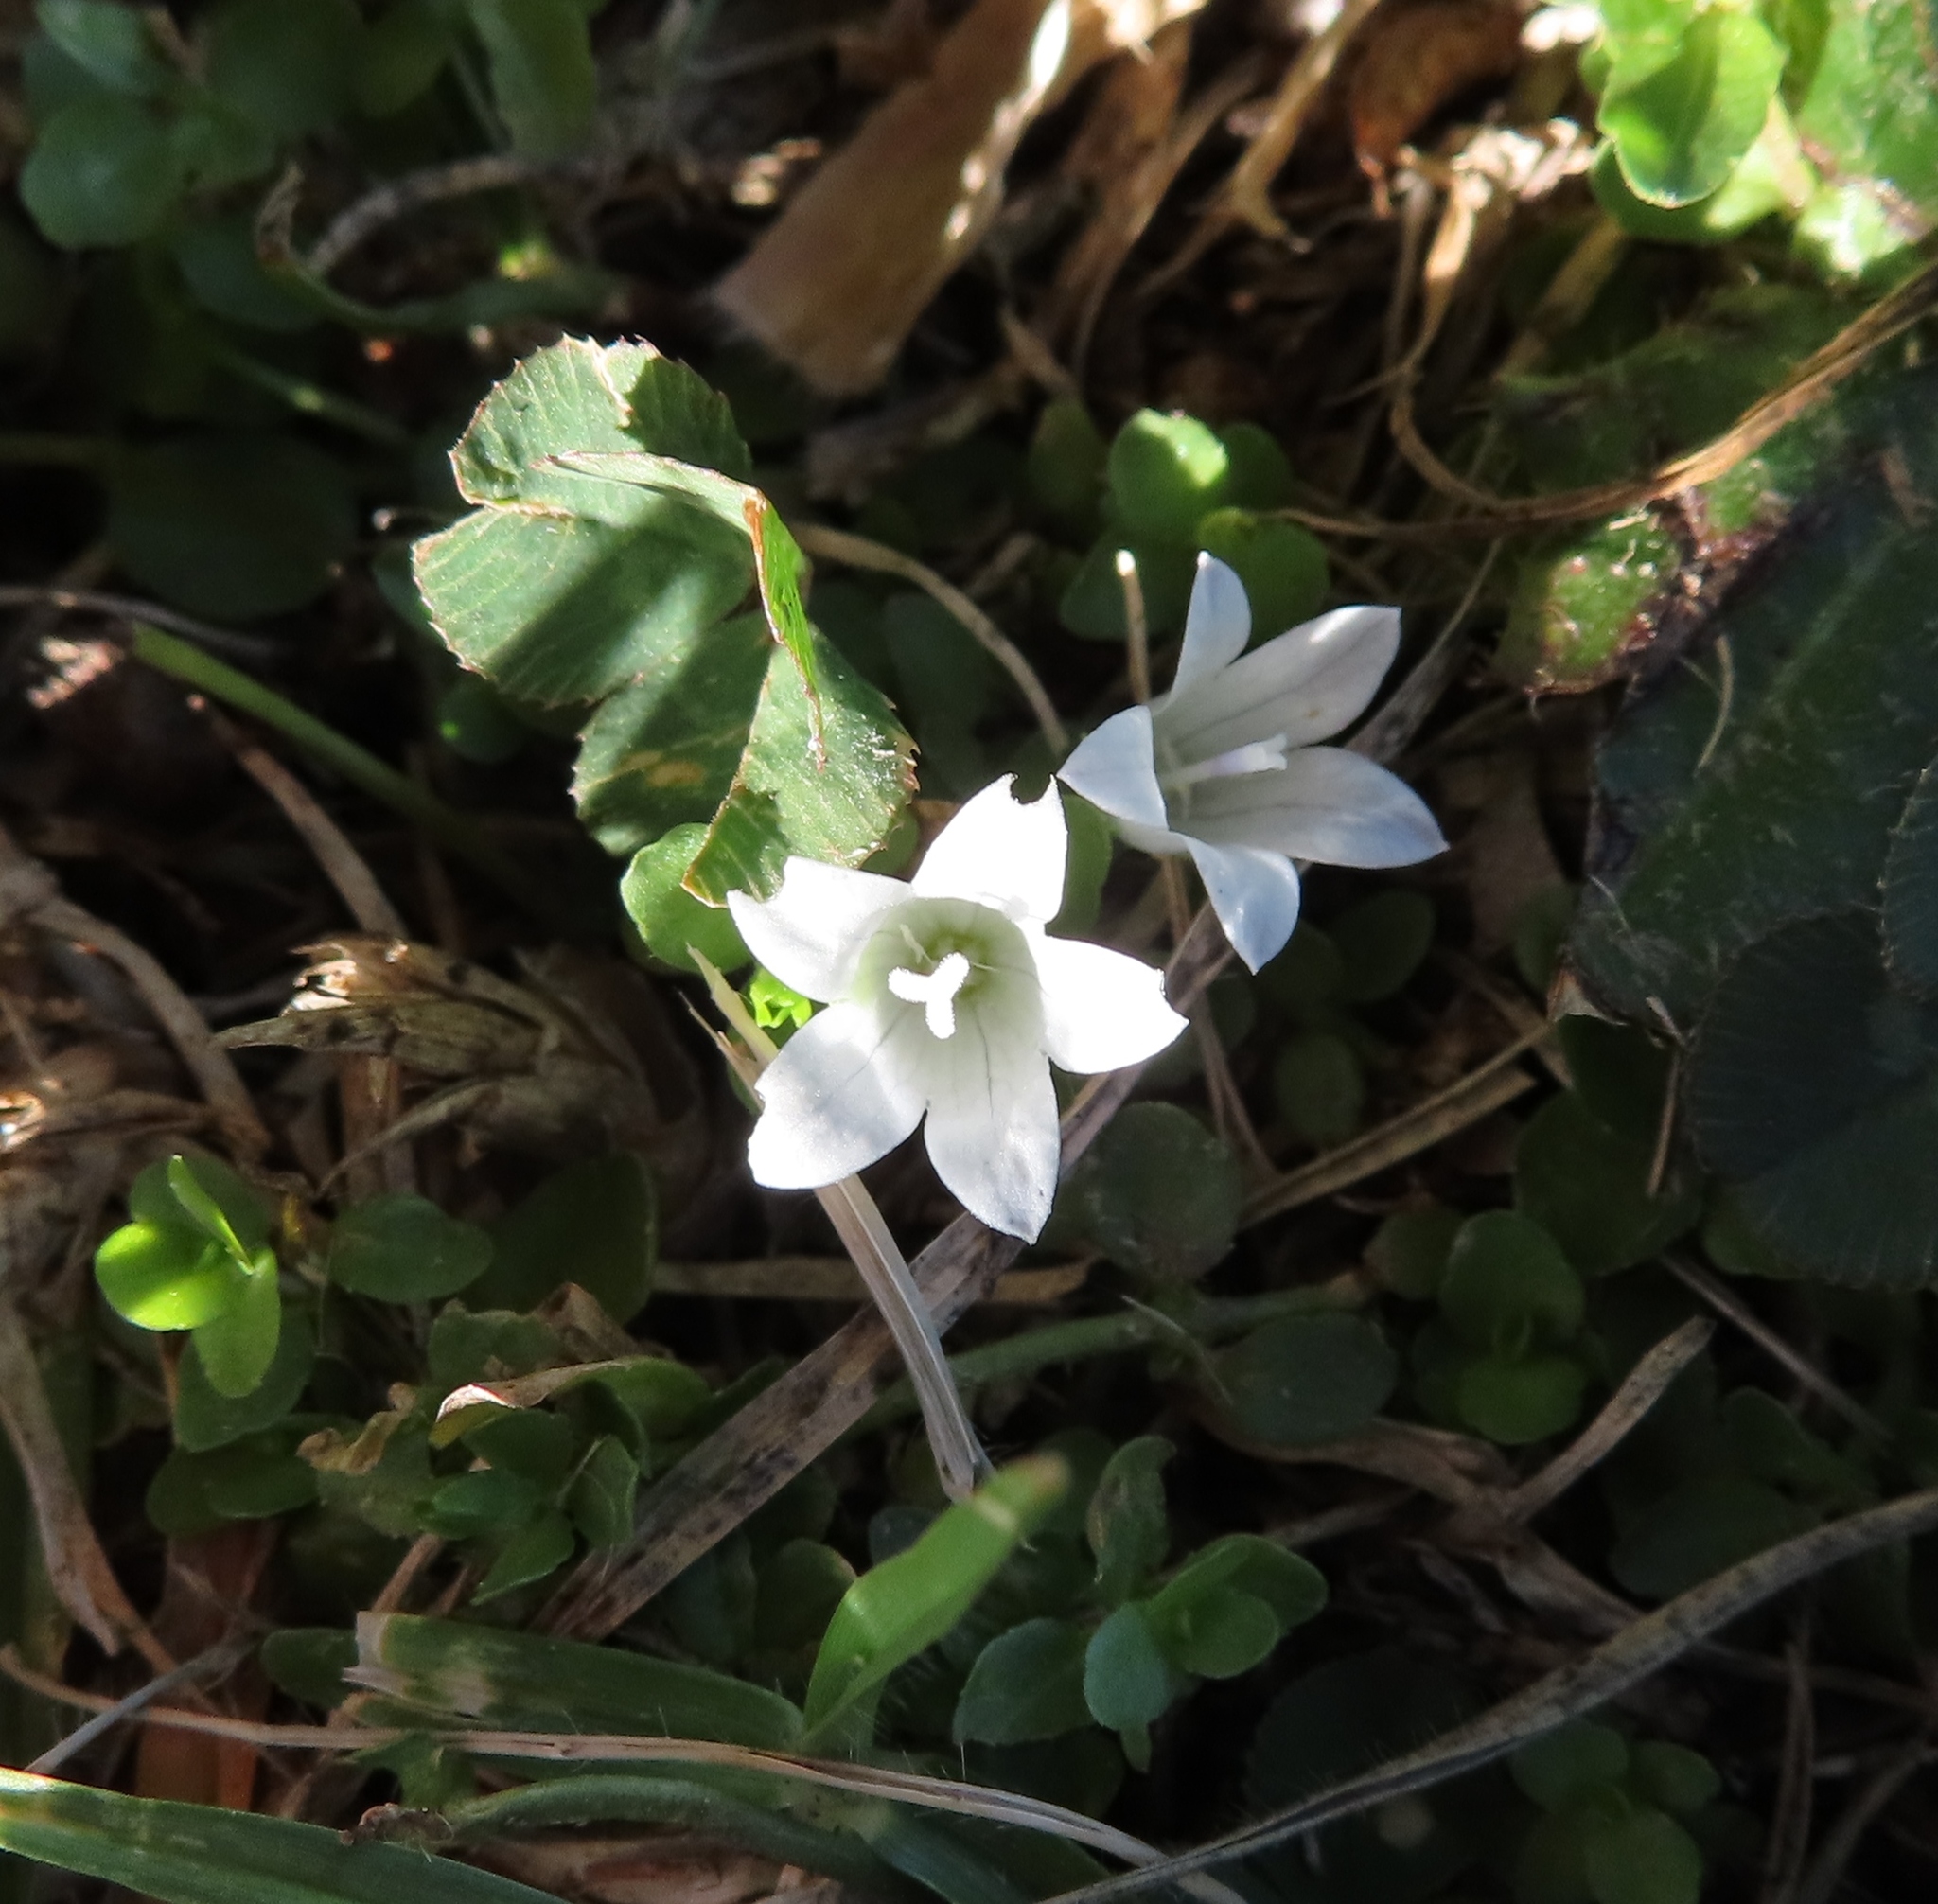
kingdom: Plantae
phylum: Tracheophyta
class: Magnoliopsida
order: Asterales
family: Campanulaceae
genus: Wahlenbergia
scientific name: Wahlenbergia procumbens
